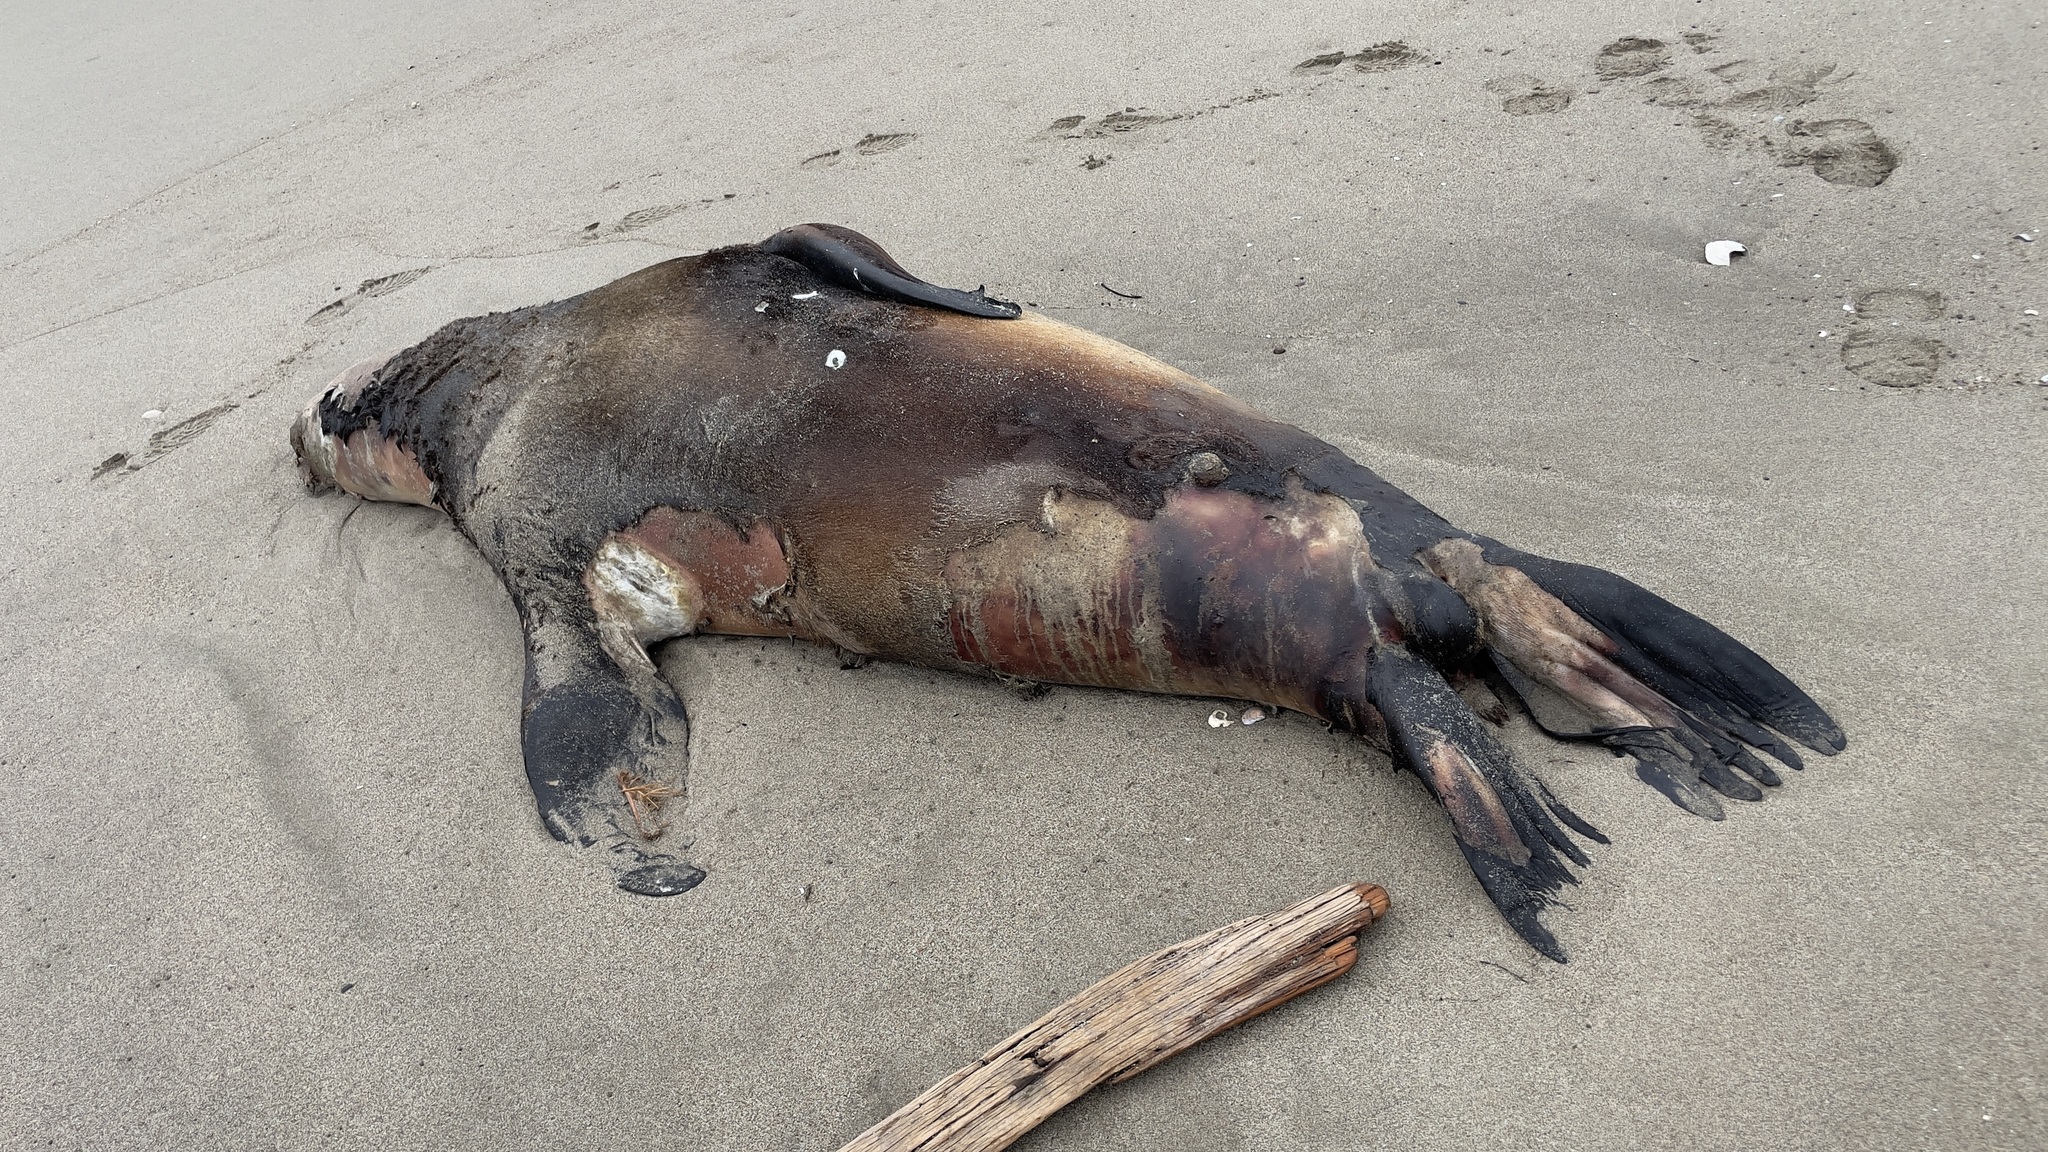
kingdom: Animalia
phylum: Chordata
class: Mammalia
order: Carnivora
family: Otariidae
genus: Zalophus
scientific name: Zalophus californianus
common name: California sea lion
